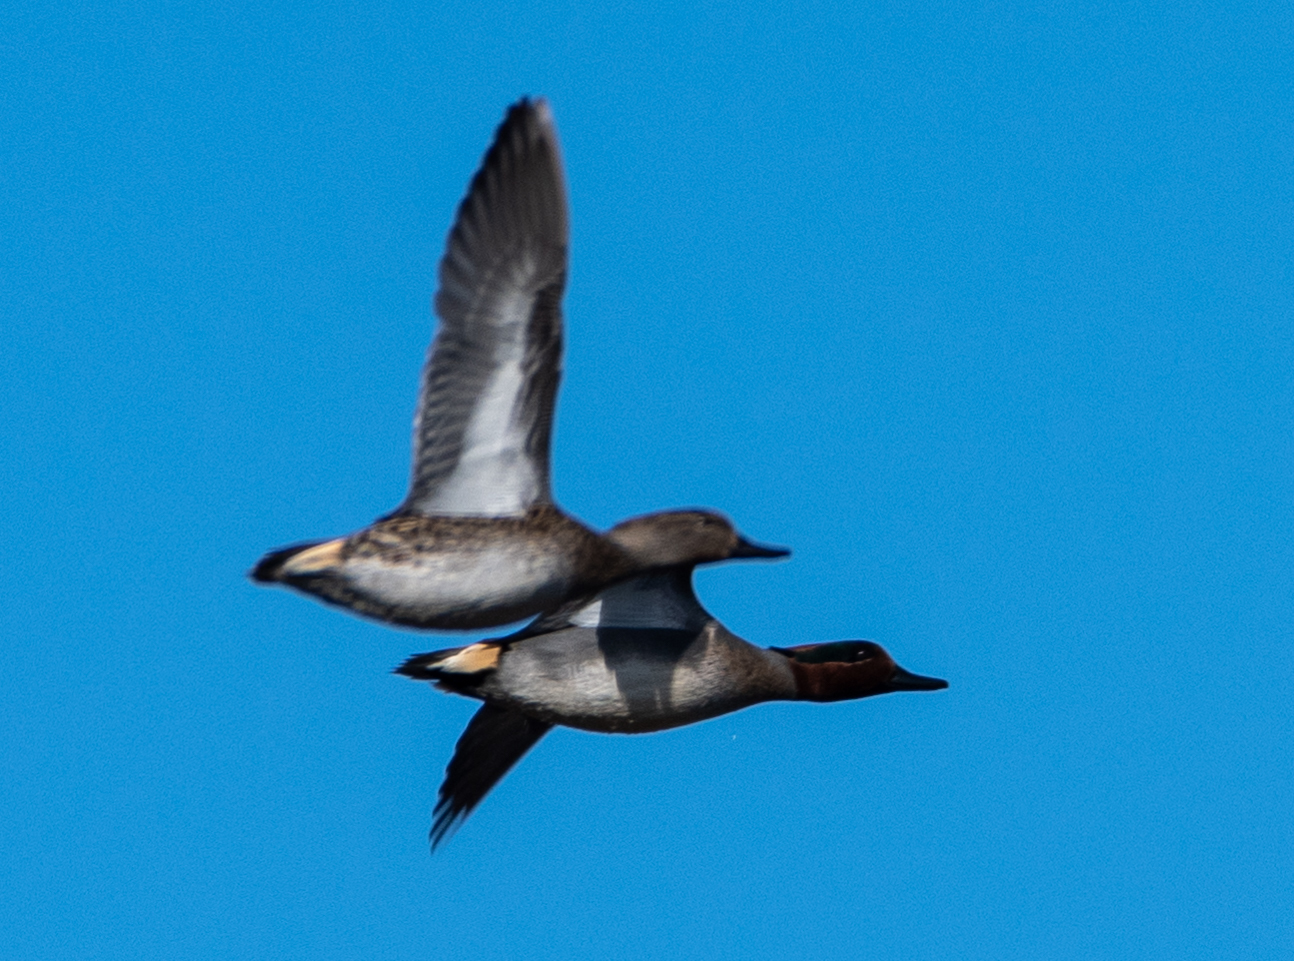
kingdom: Animalia
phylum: Chordata
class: Aves
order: Anseriformes
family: Anatidae
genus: Anas
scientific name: Anas crecca
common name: Eurasian teal
